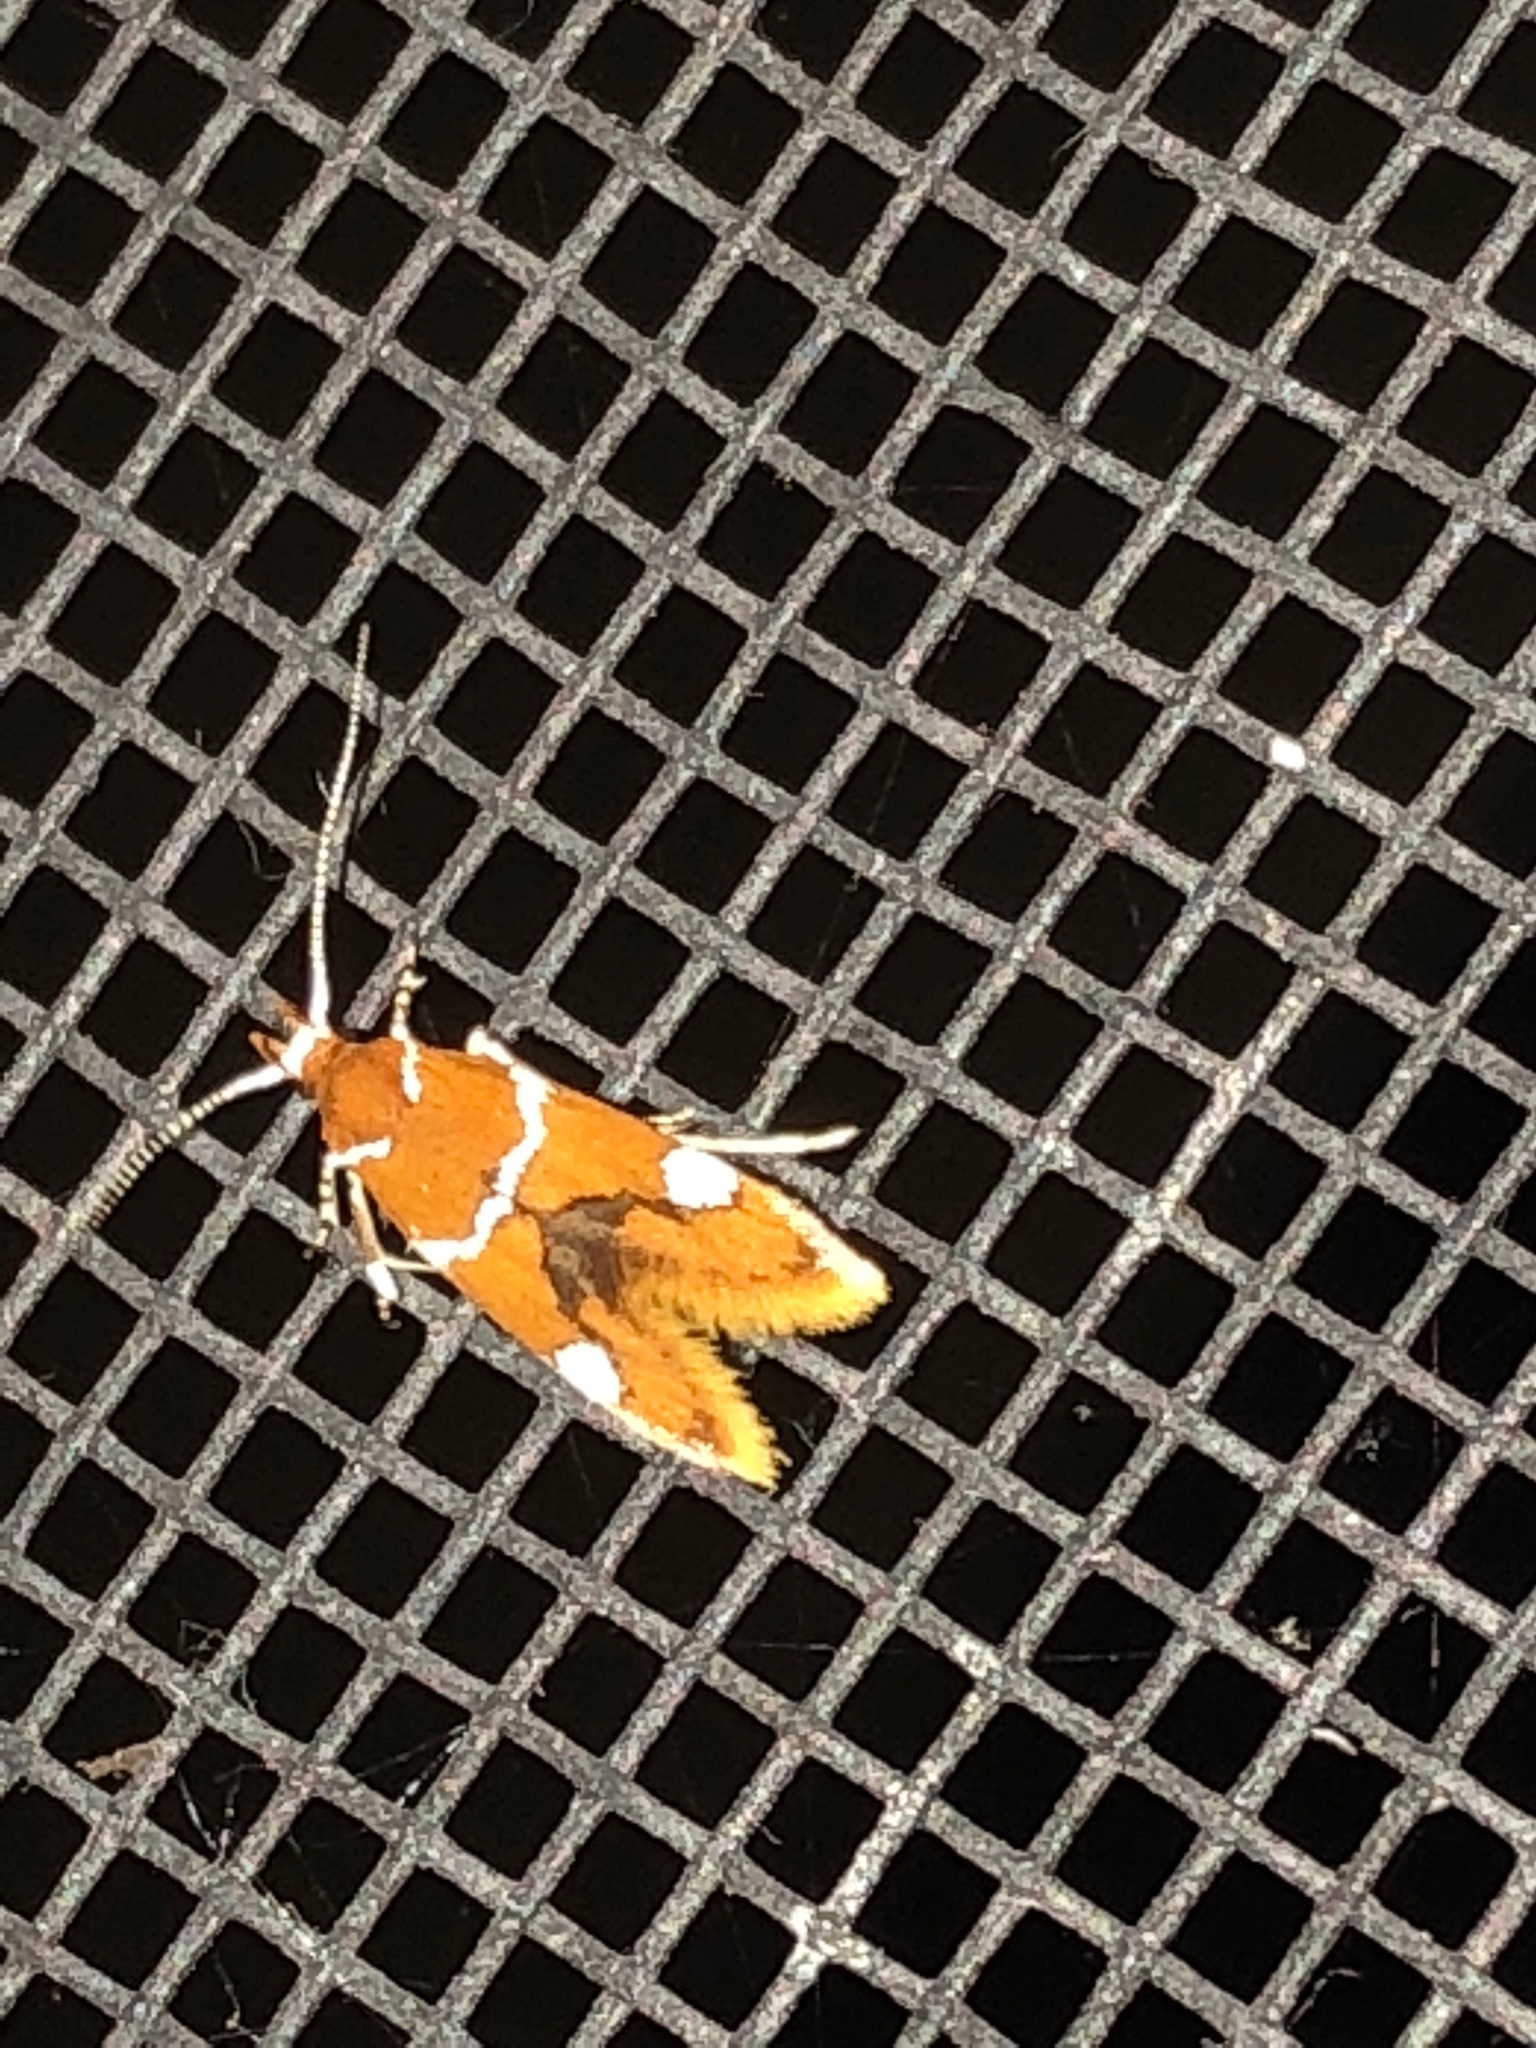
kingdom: Animalia
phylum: Arthropoda
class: Insecta
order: Lepidoptera
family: Oecophoridae
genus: Promalactis
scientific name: Promalactis suzukiella
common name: Moth
